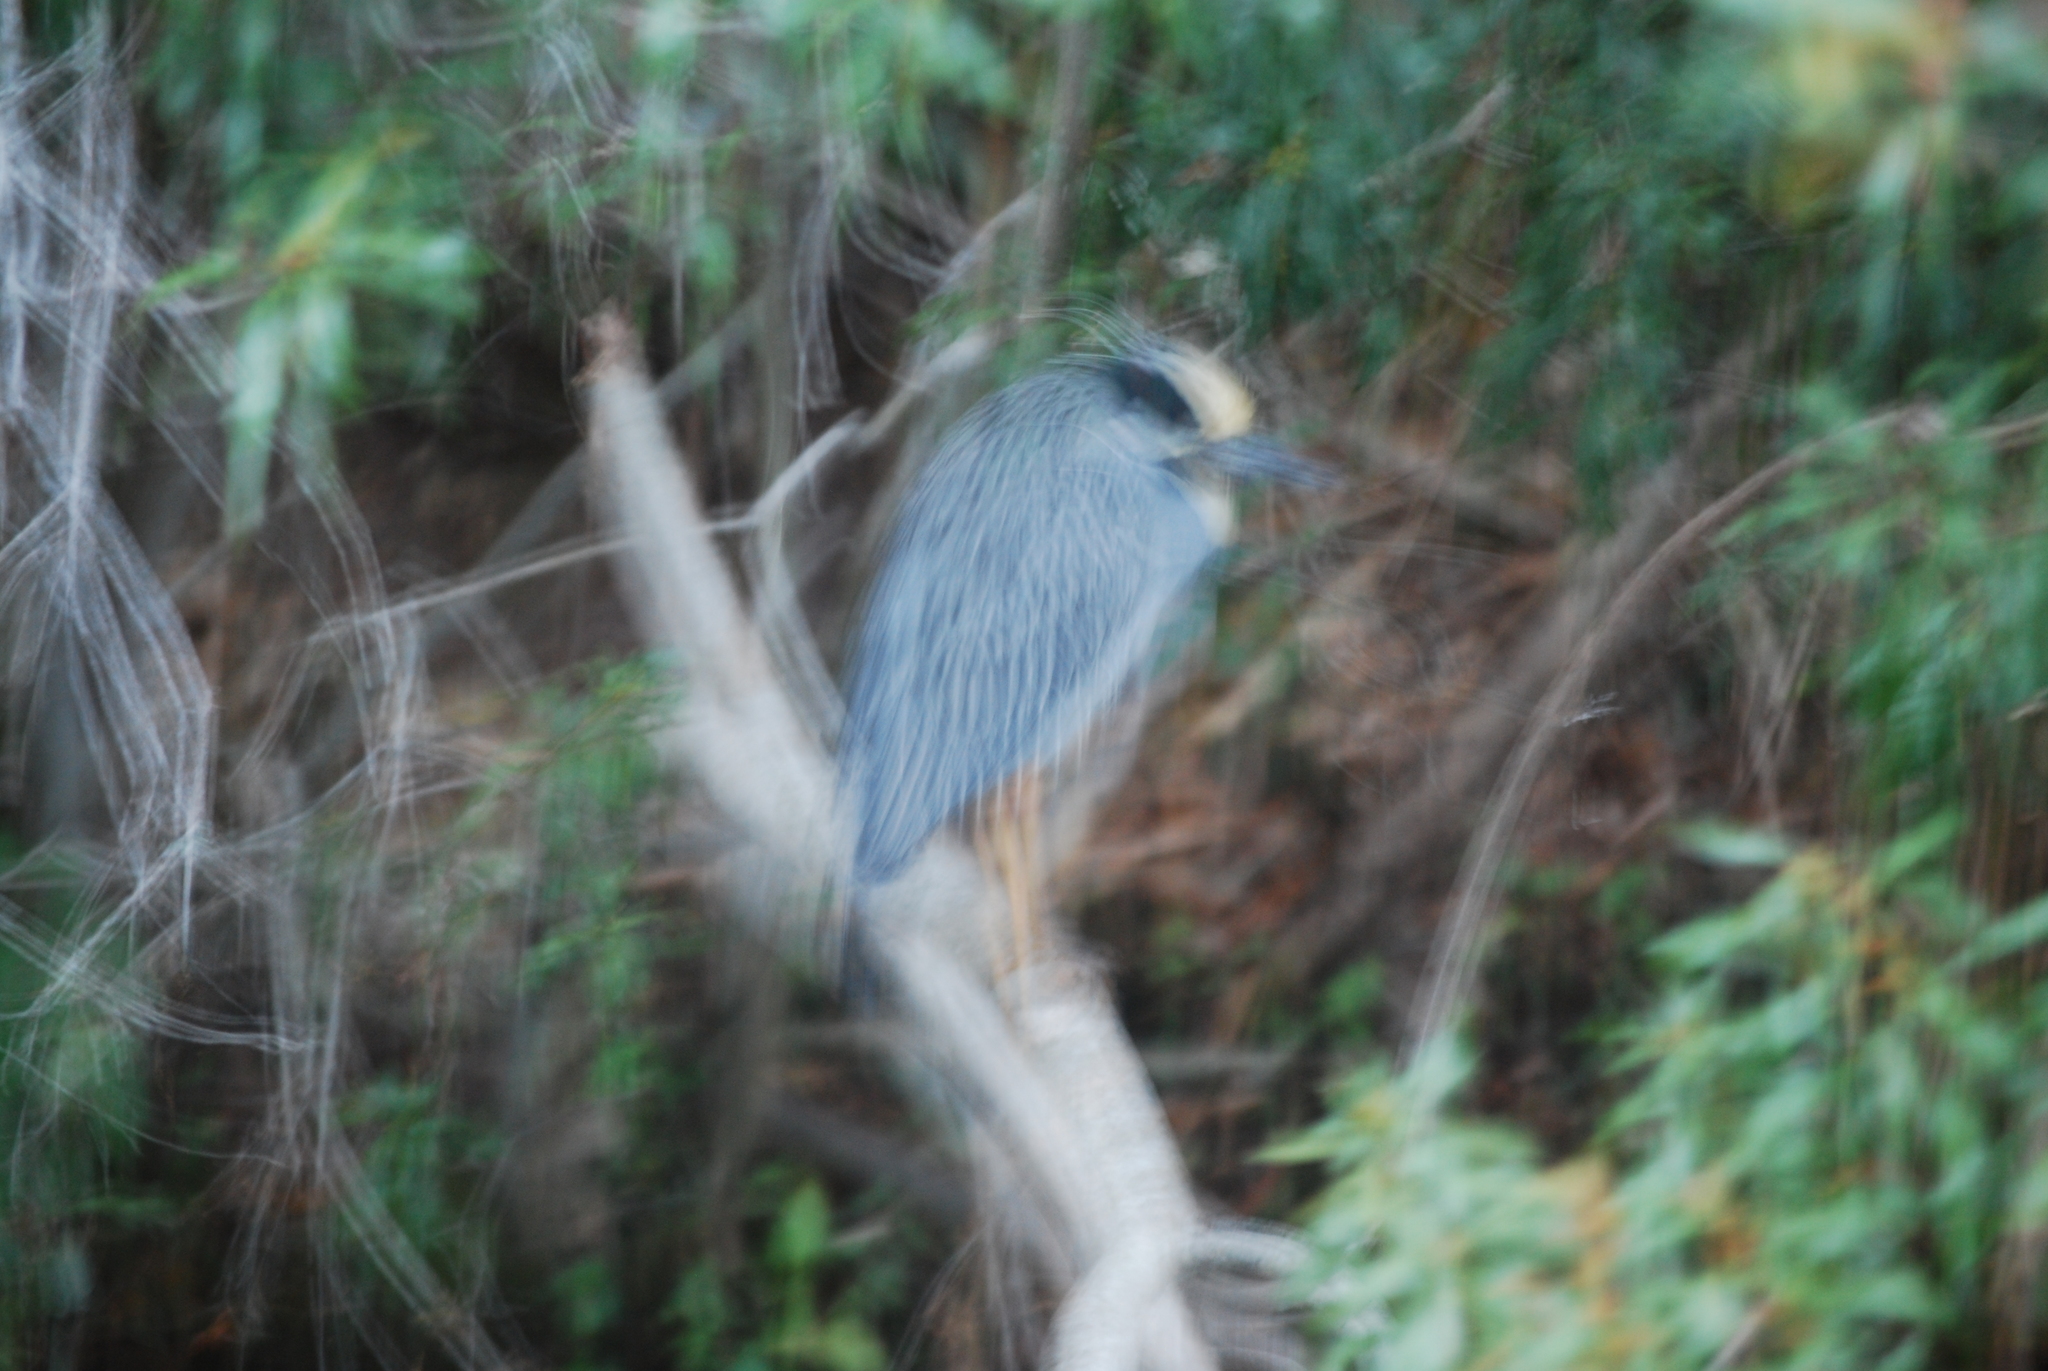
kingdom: Animalia
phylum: Chordata
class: Aves
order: Pelecaniformes
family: Ardeidae
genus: Nyctanassa
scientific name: Nyctanassa violacea
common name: Yellow-crowned night heron
